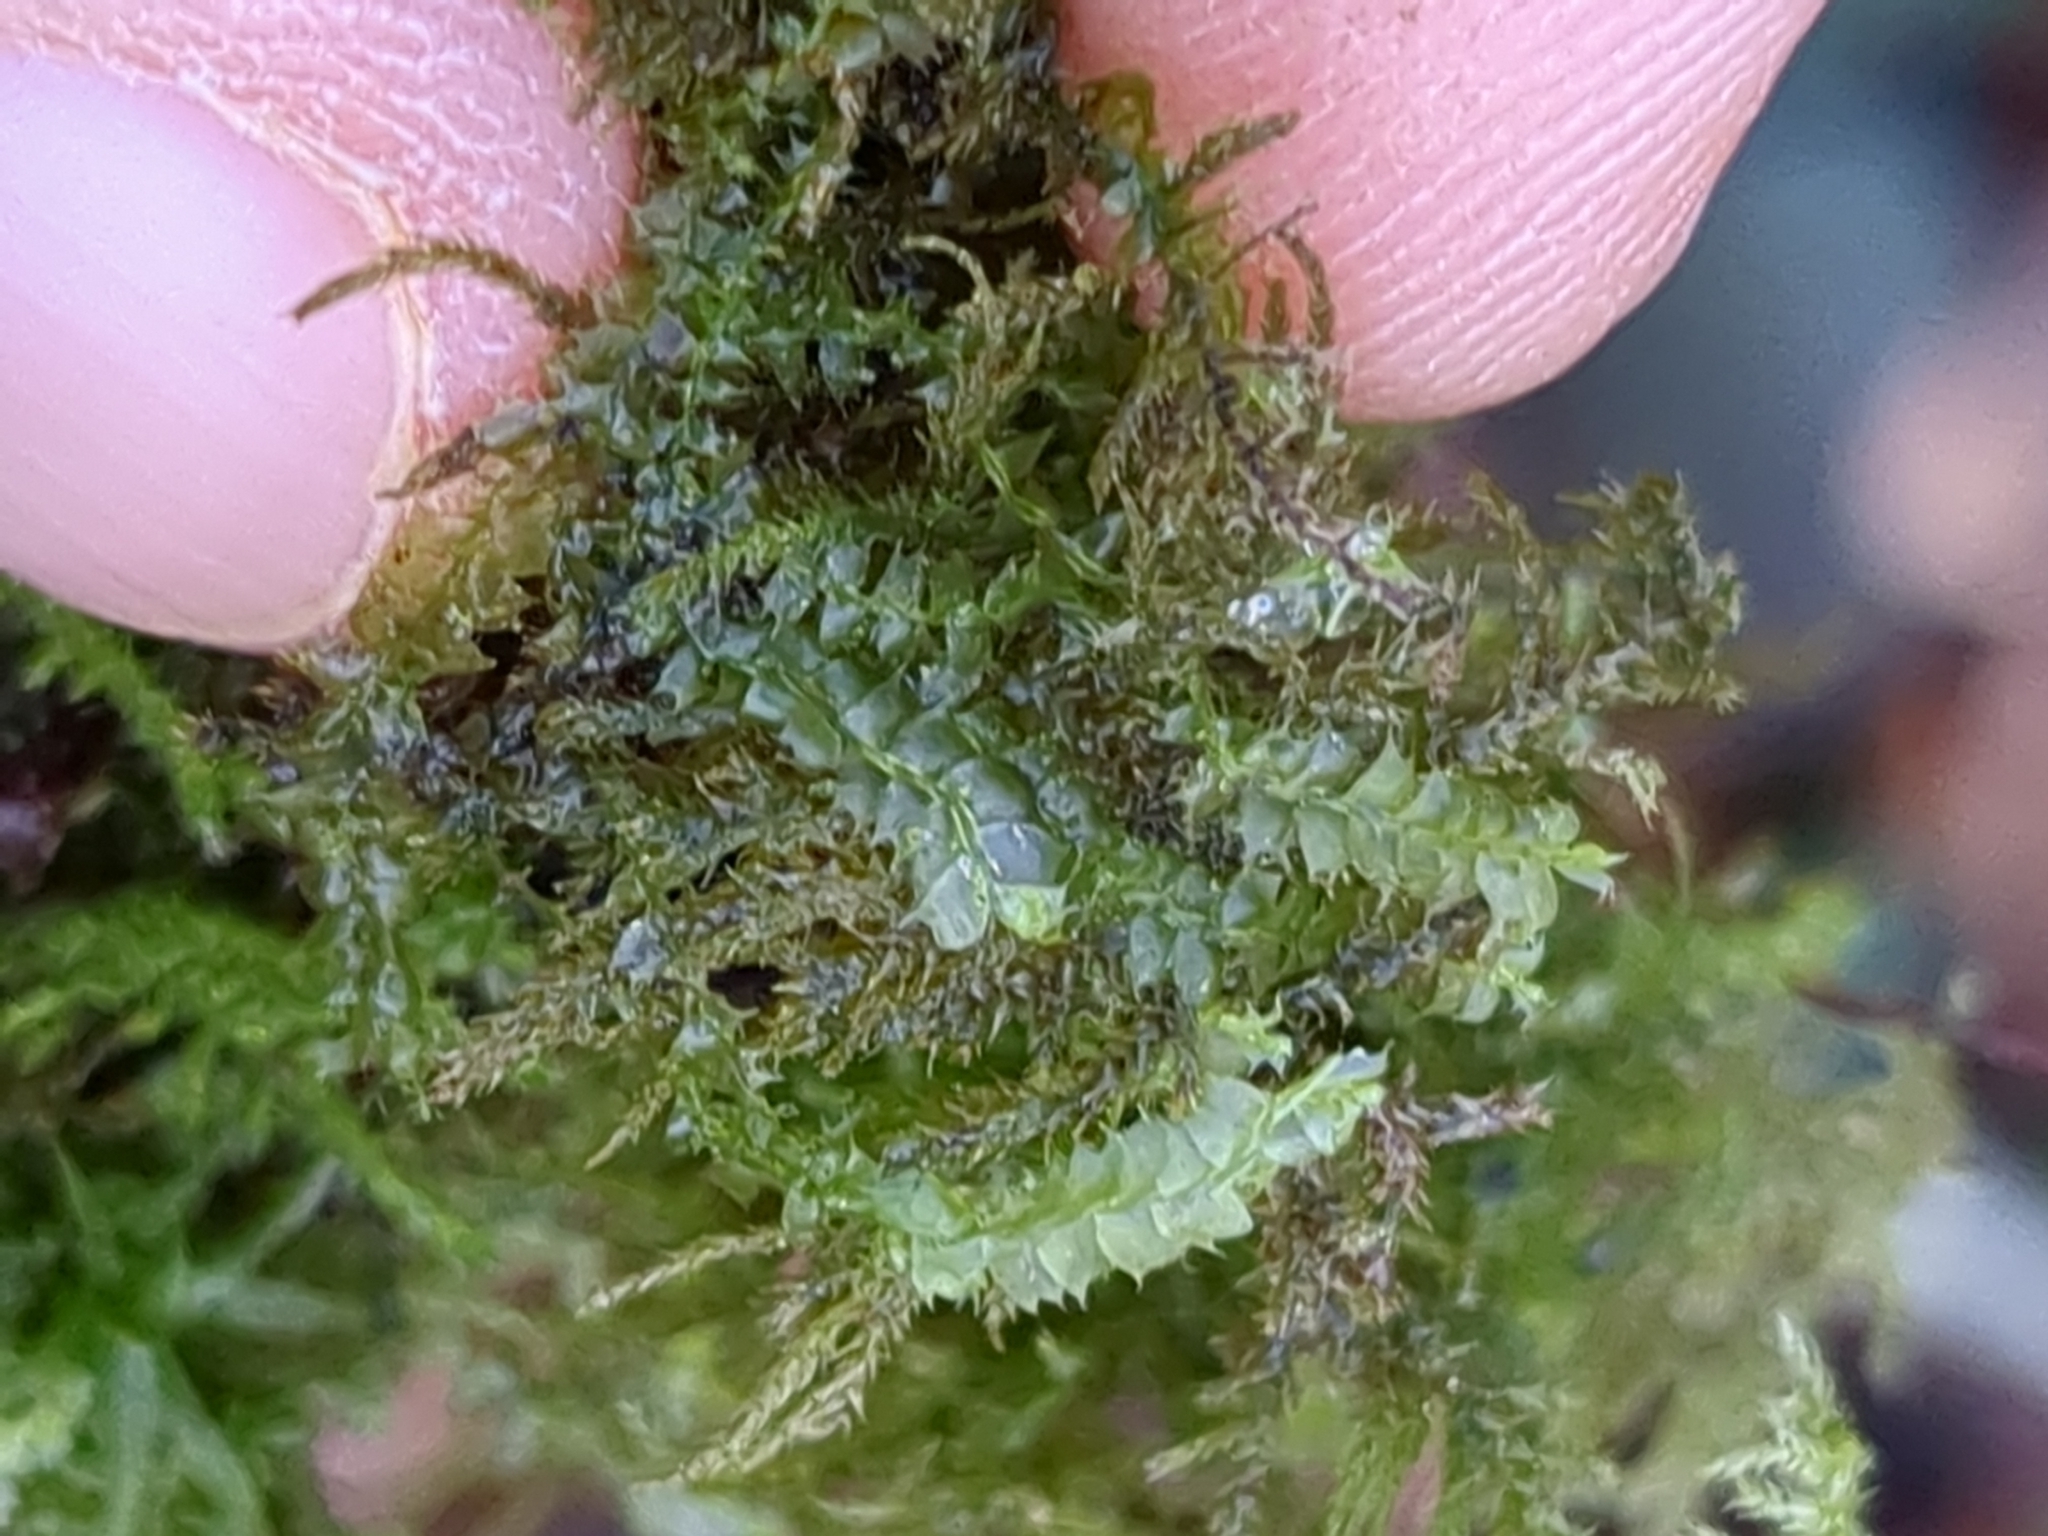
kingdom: Plantae
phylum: Marchantiophyta
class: Jungermanniopsida
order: Jungermanniales
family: Lophocoleaceae
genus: Lophocolea
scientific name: Lophocolea bidentata
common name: Bifid crestwort
